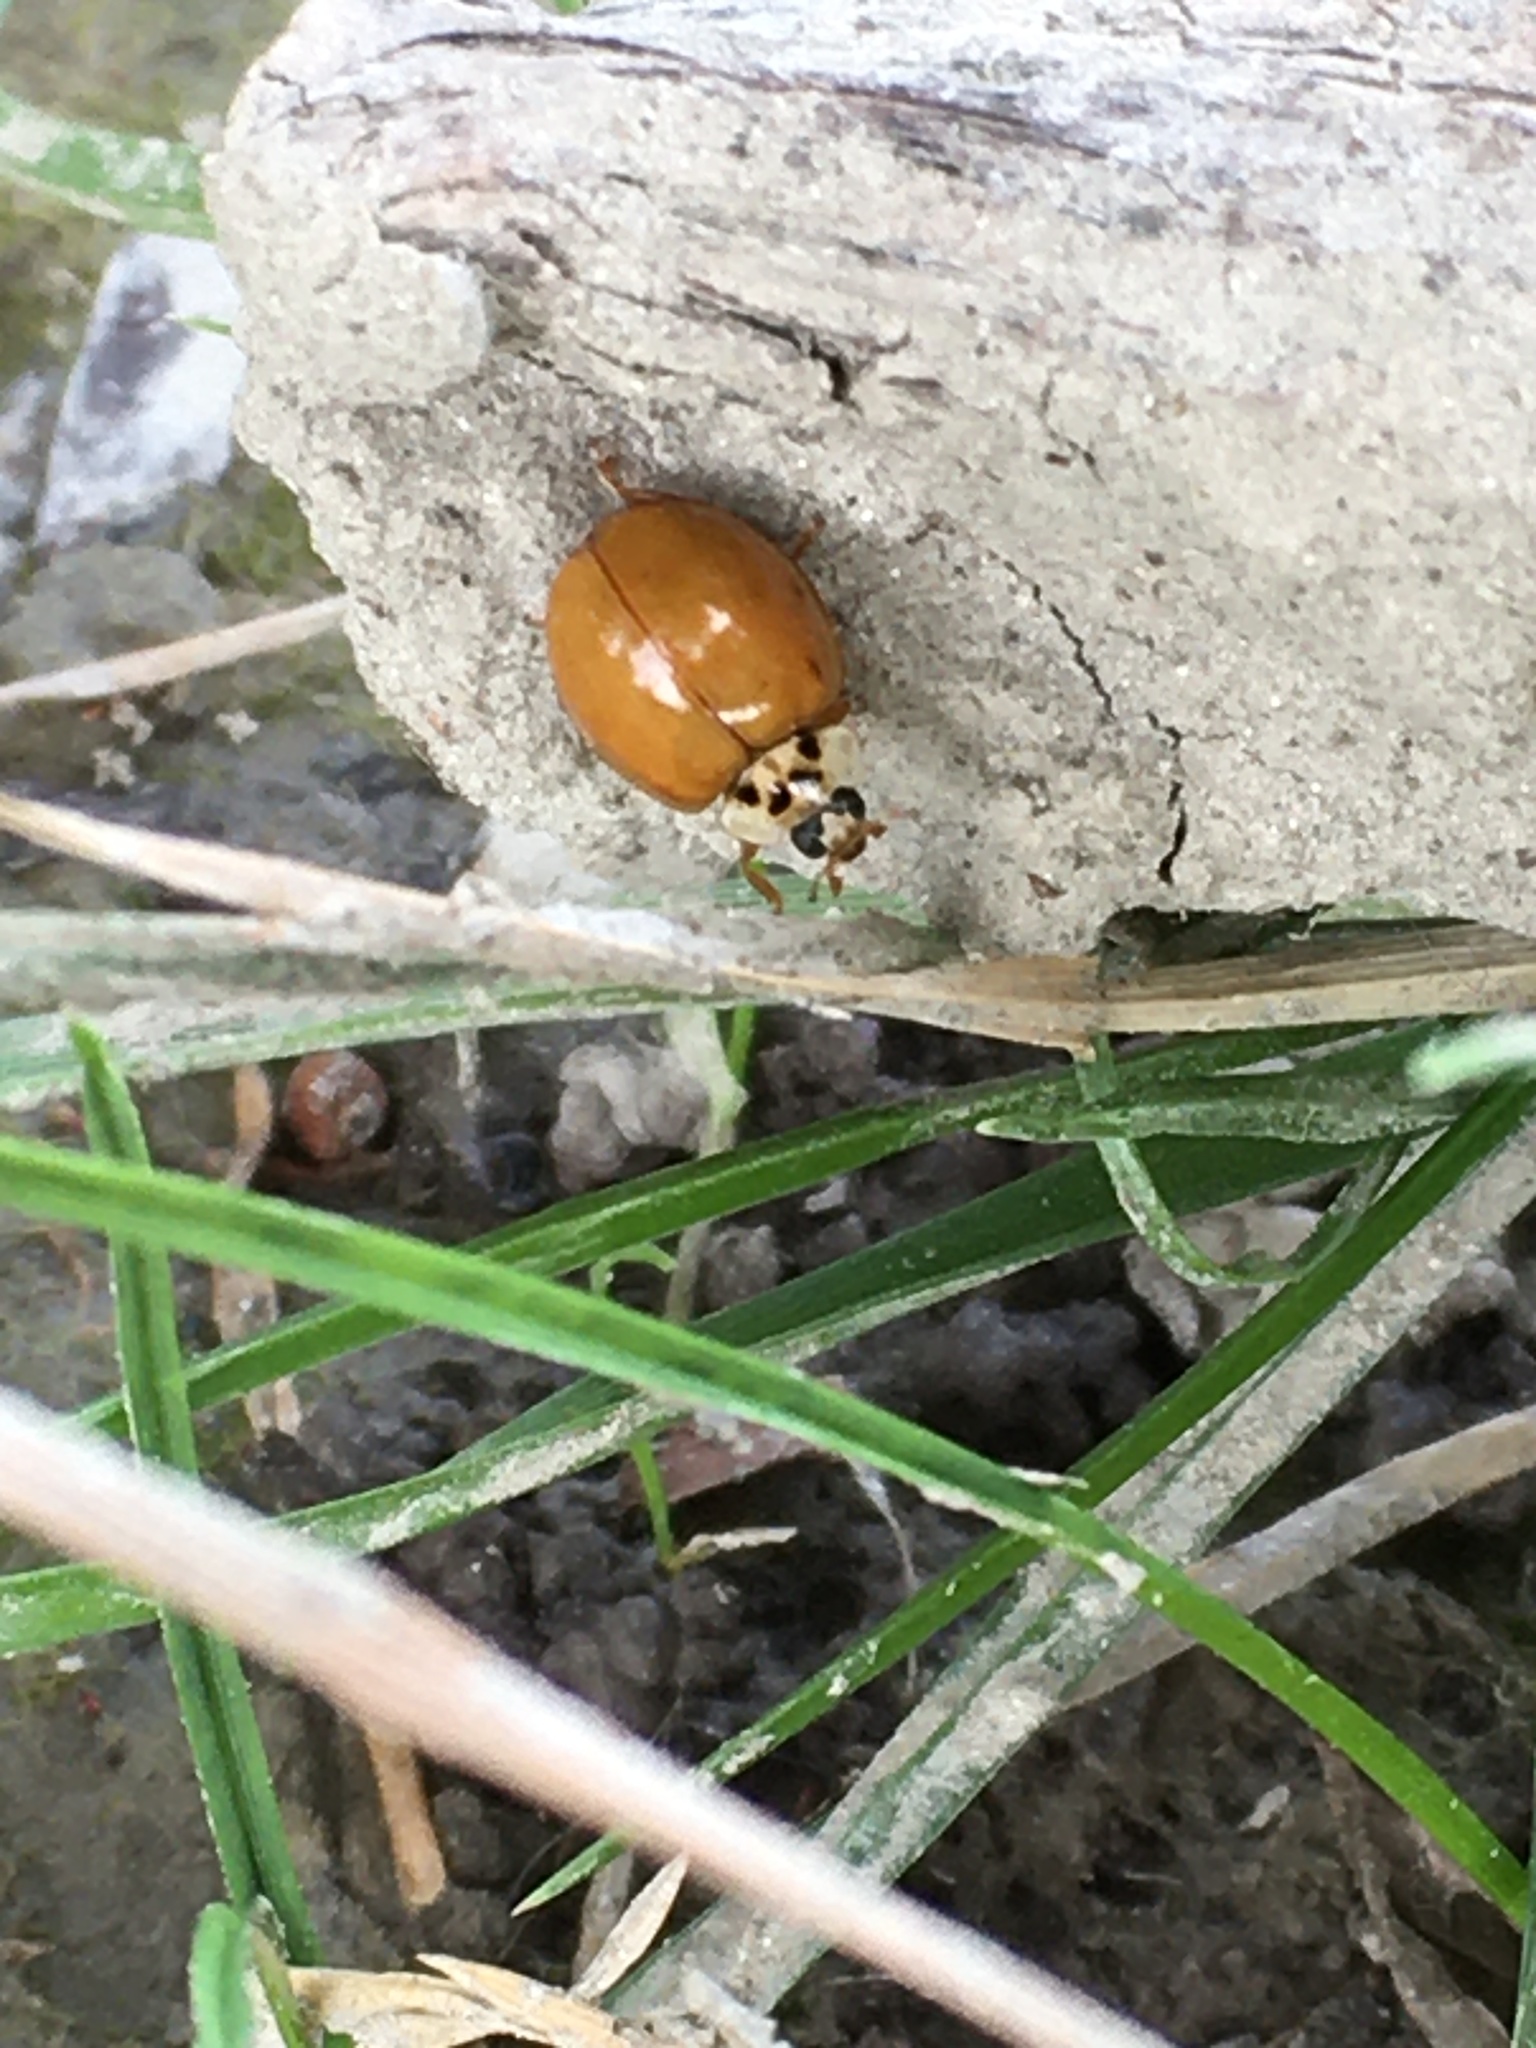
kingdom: Animalia
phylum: Arthropoda
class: Insecta
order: Coleoptera
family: Coccinellidae
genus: Harmonia
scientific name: Harmonia axyridis
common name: Harlequin ladybird
